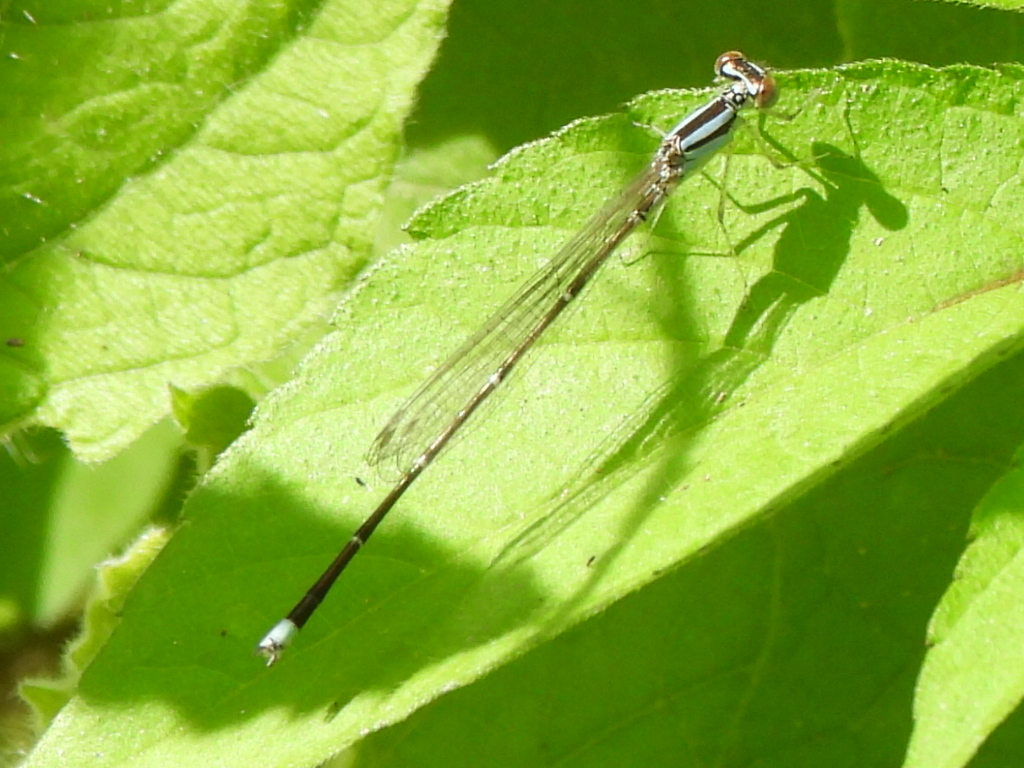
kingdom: Animalia
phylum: Arthropoda
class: Insecta
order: Odonata
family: Coenagrionidae
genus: Enallagma
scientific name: Enallagma signatum
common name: Orange bluet
